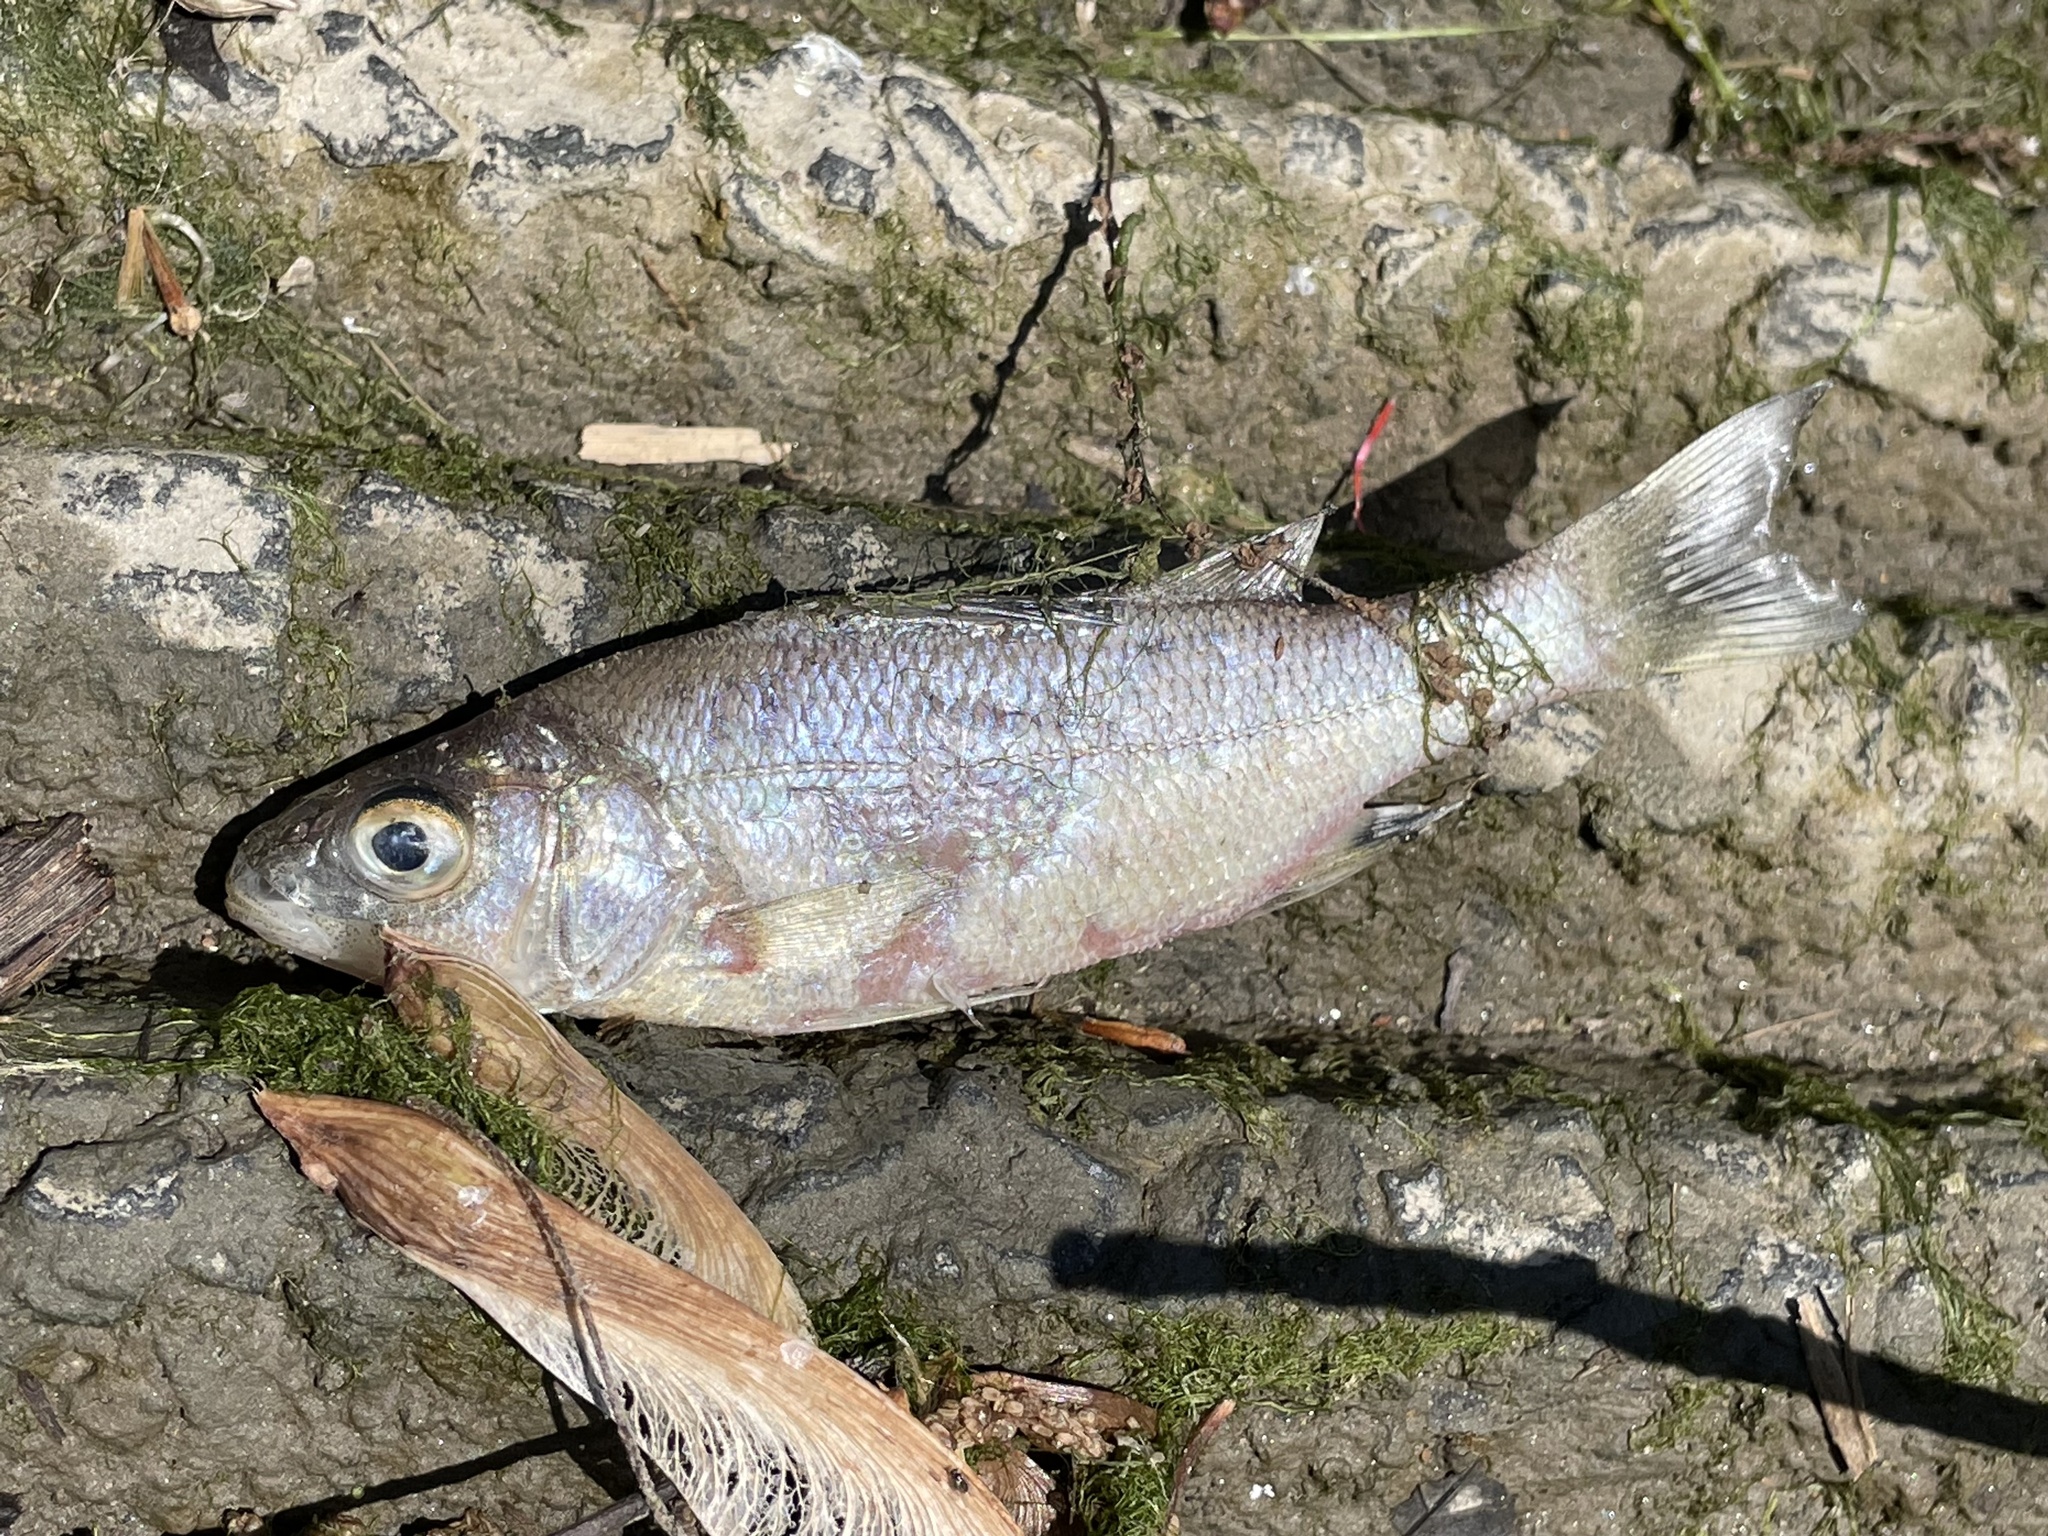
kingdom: Animalia
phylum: Chordata
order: Perciformes
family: Moronidae
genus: Morone
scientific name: Morone americana
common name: White perch
